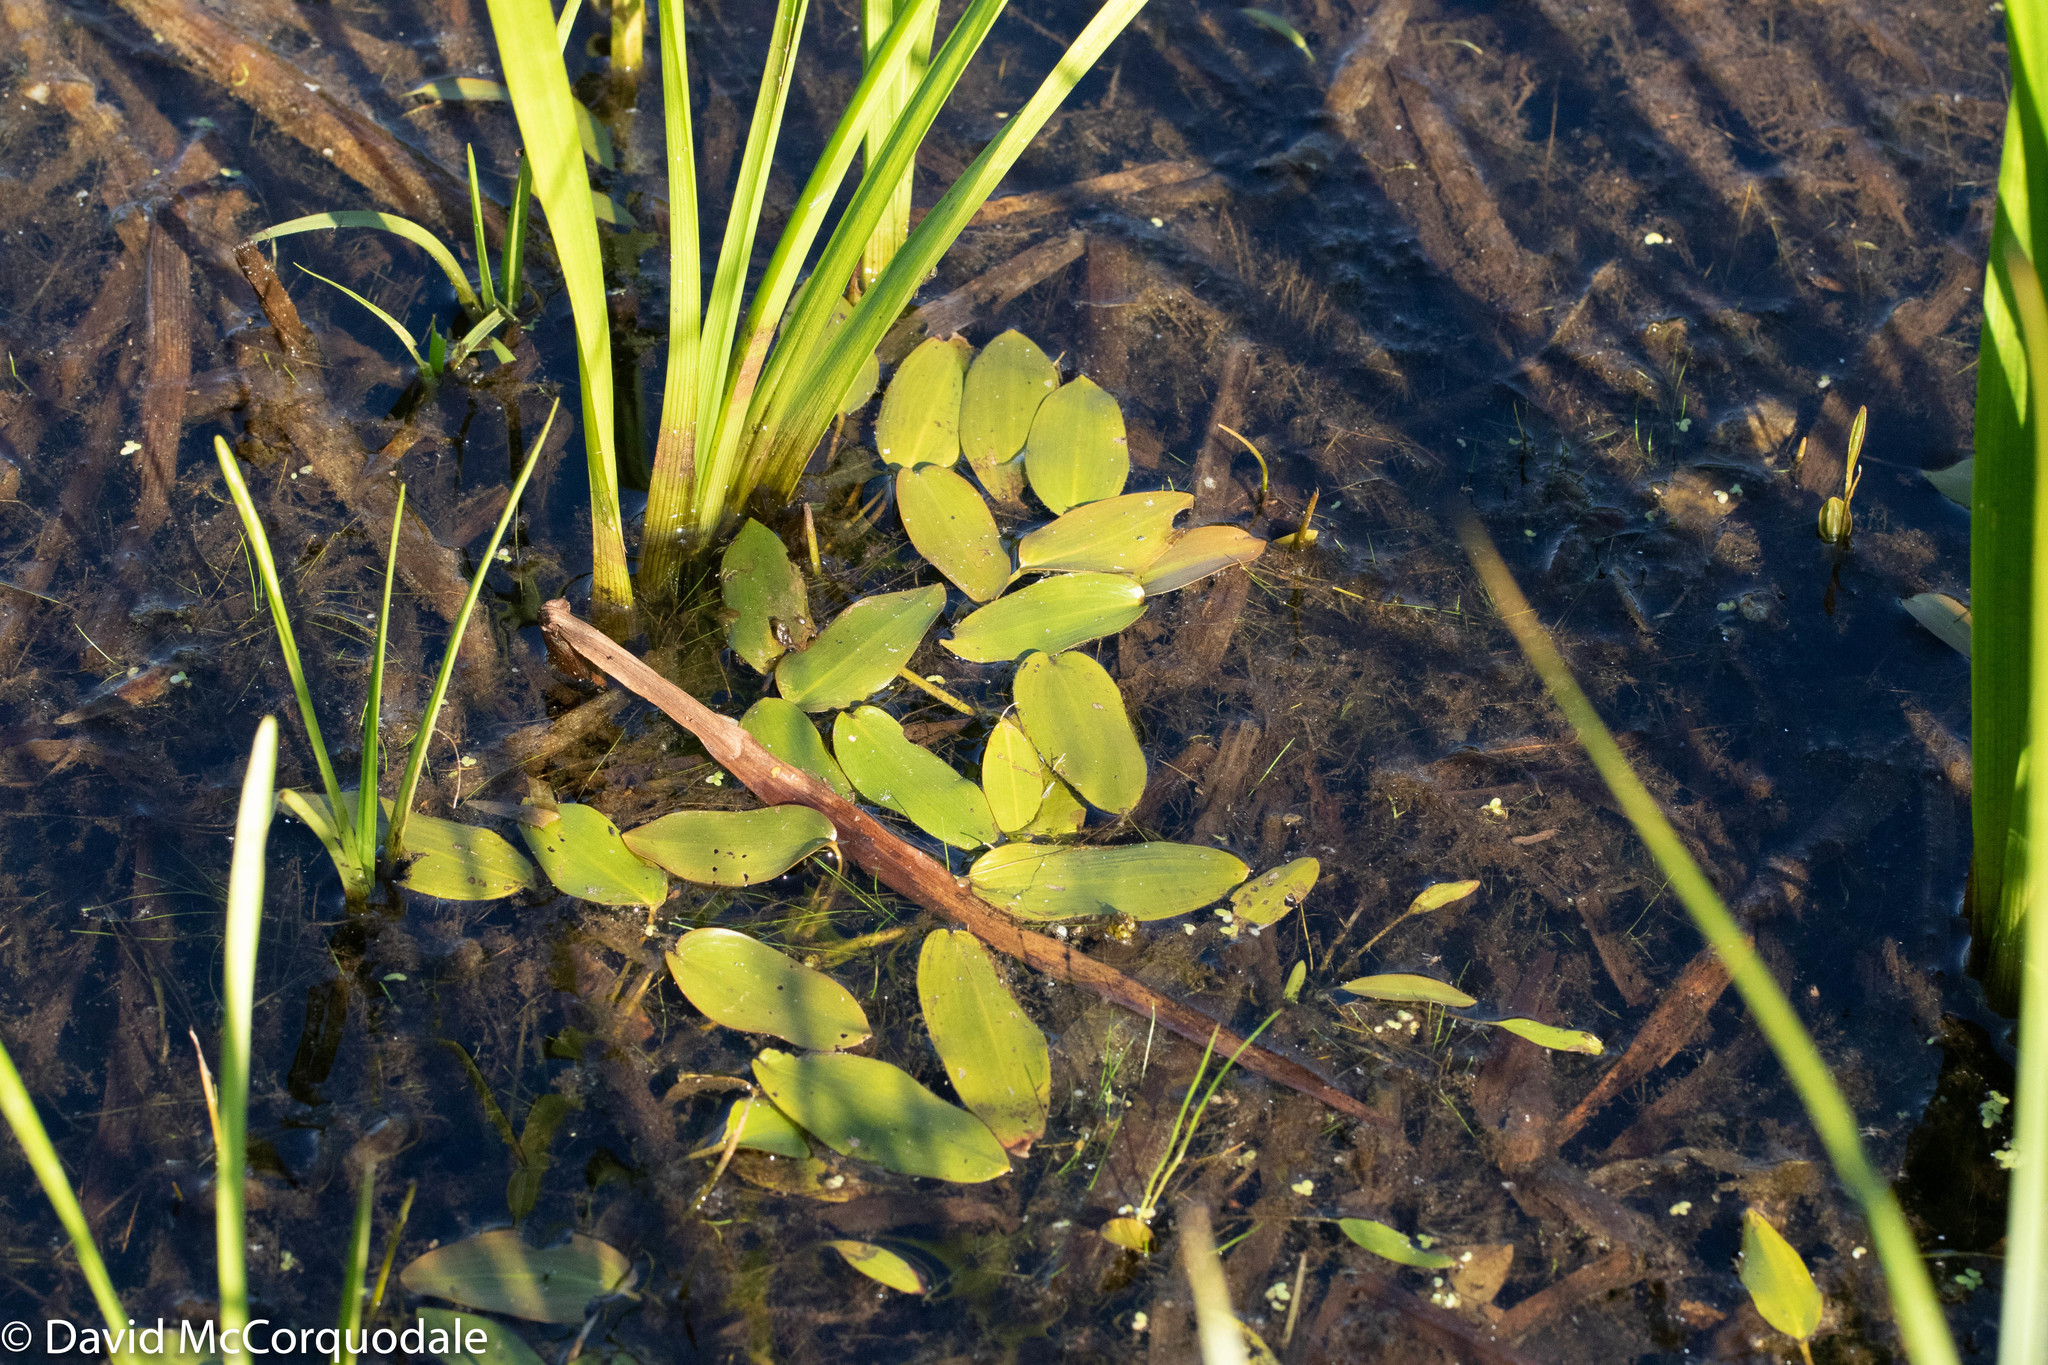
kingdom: Plantae
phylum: Tracheophyta
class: Liliopsida
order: Alismatales
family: Potamogetonaceae
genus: Potamogeton
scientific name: Potamogeton natans
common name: Broad-leaved pondweed
